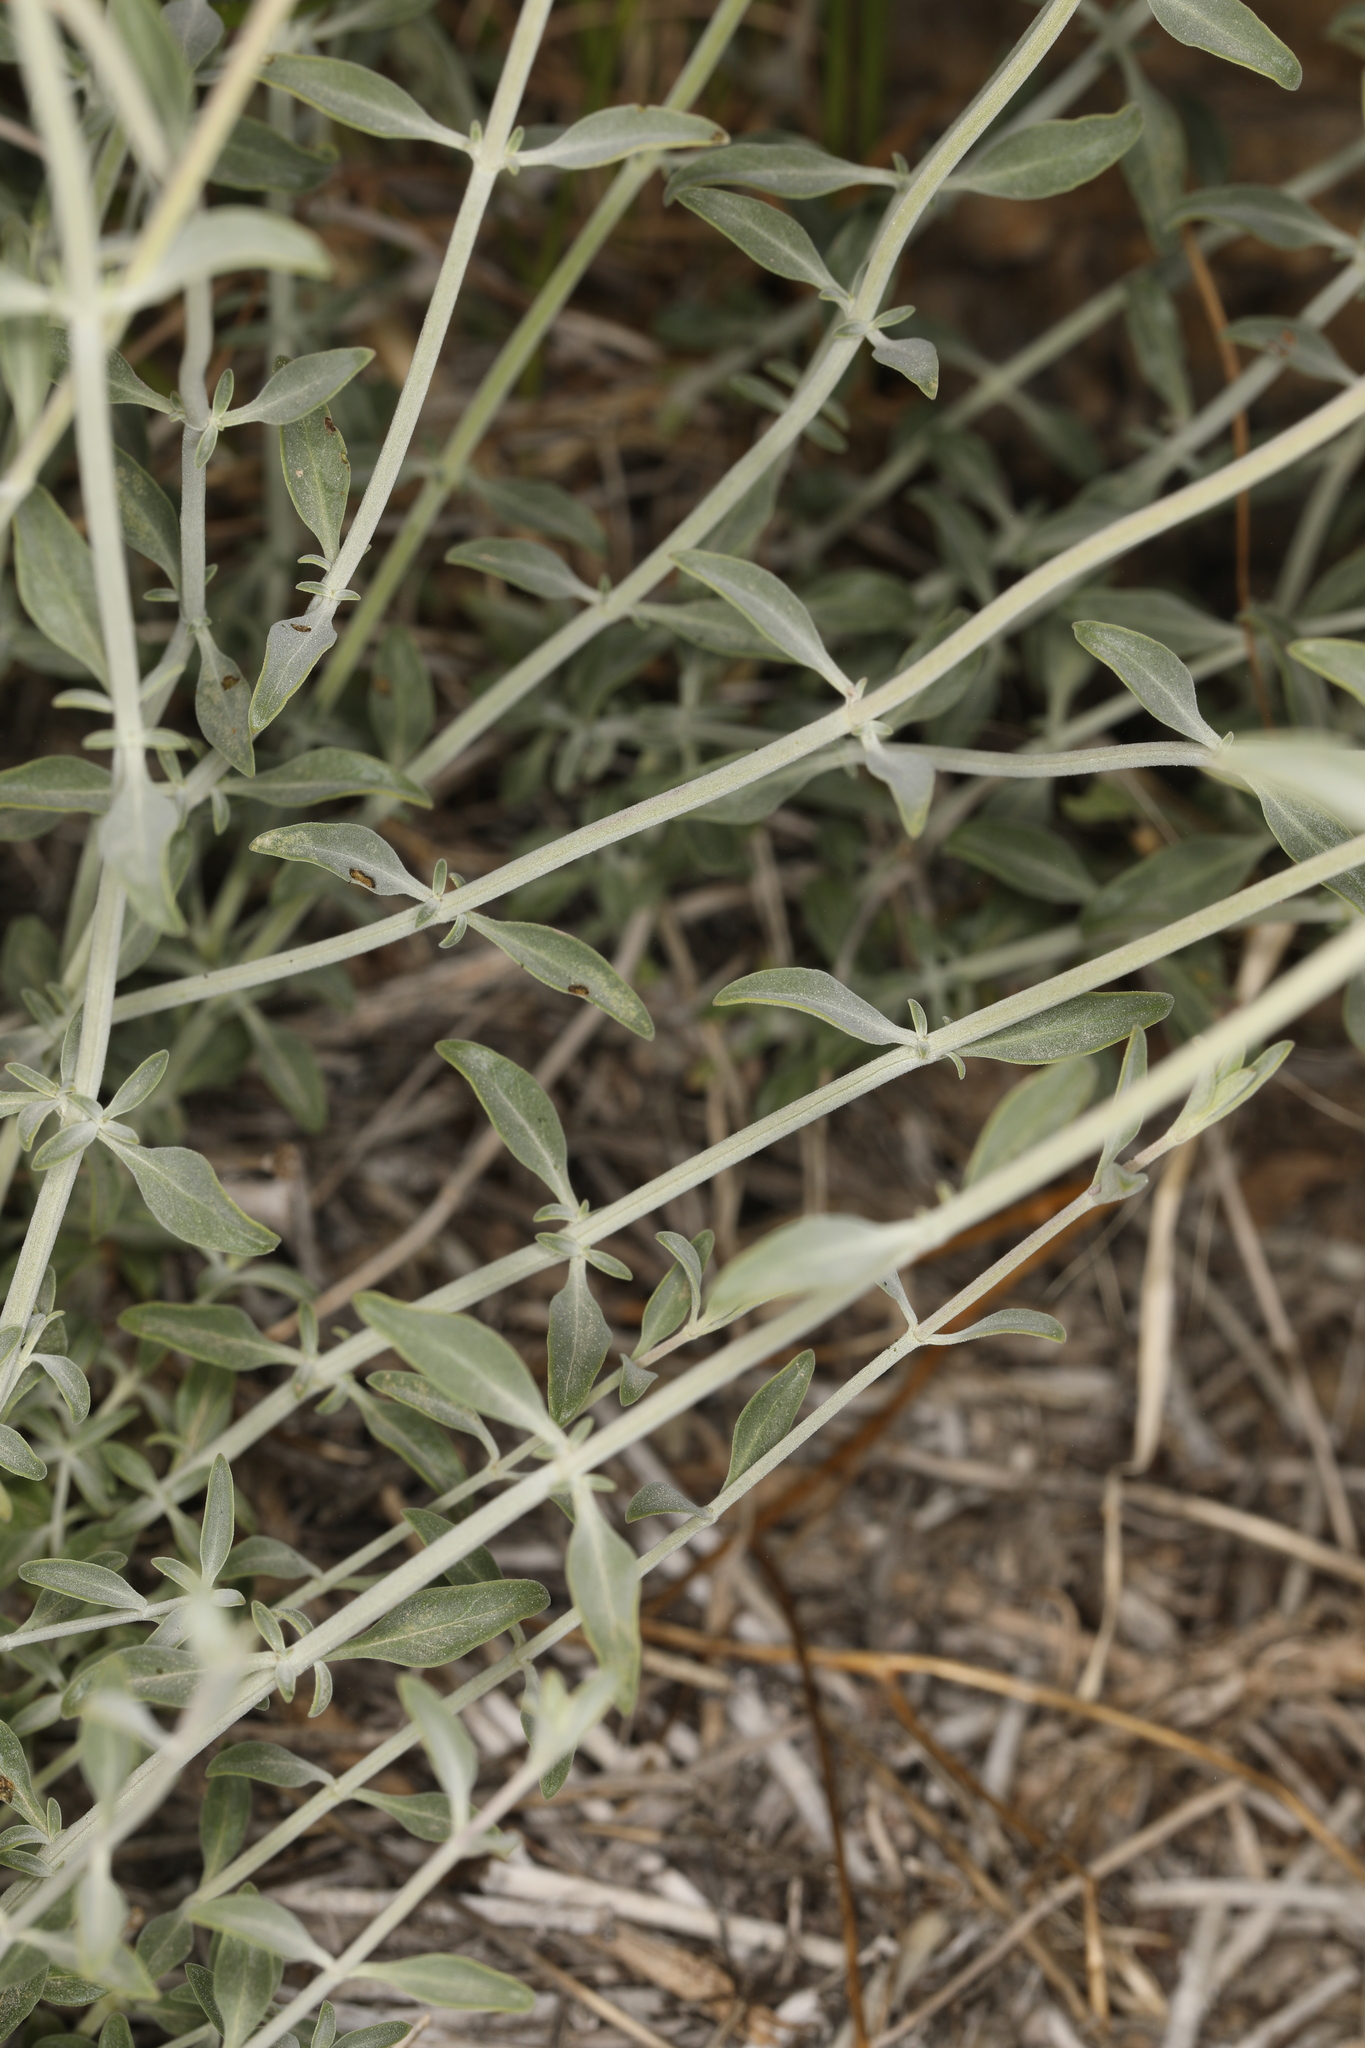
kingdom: Plantae
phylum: Tracheophyta
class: Magnoliopsida
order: Lamiales
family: Lamiaceae
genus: Monardella
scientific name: Monardella linoides
